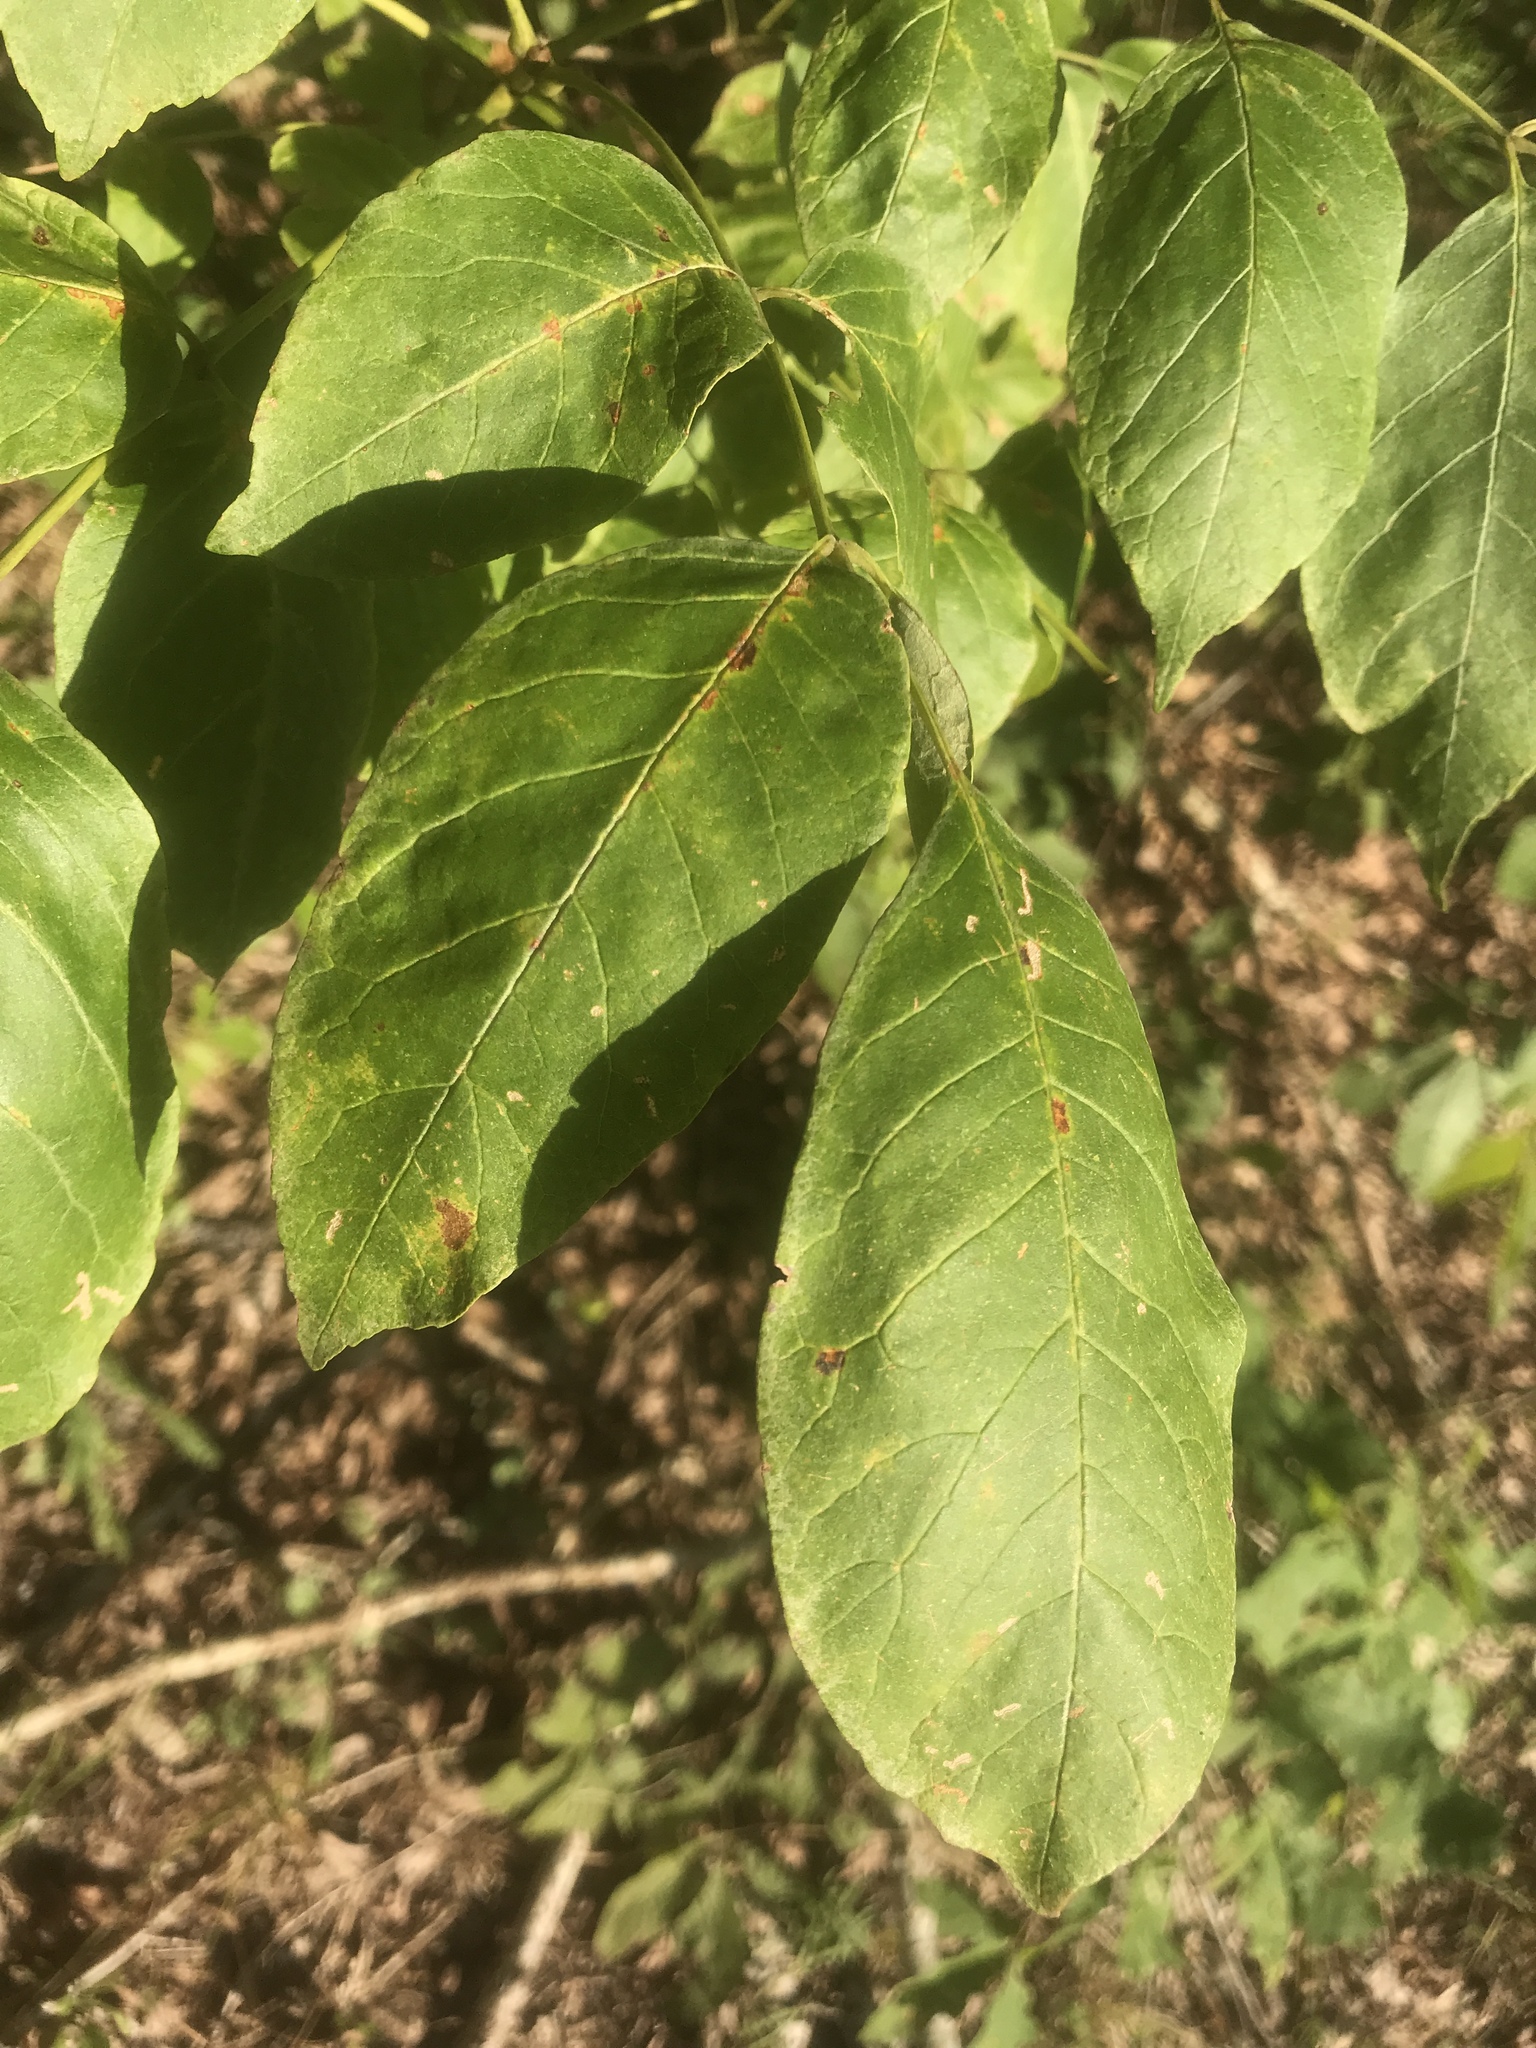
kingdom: Plantae
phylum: Tracheophyta
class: Magnoliopsida
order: Lamiales
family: Oleaceae
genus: Fraxinus
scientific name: Fraxinus americana
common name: White ash
